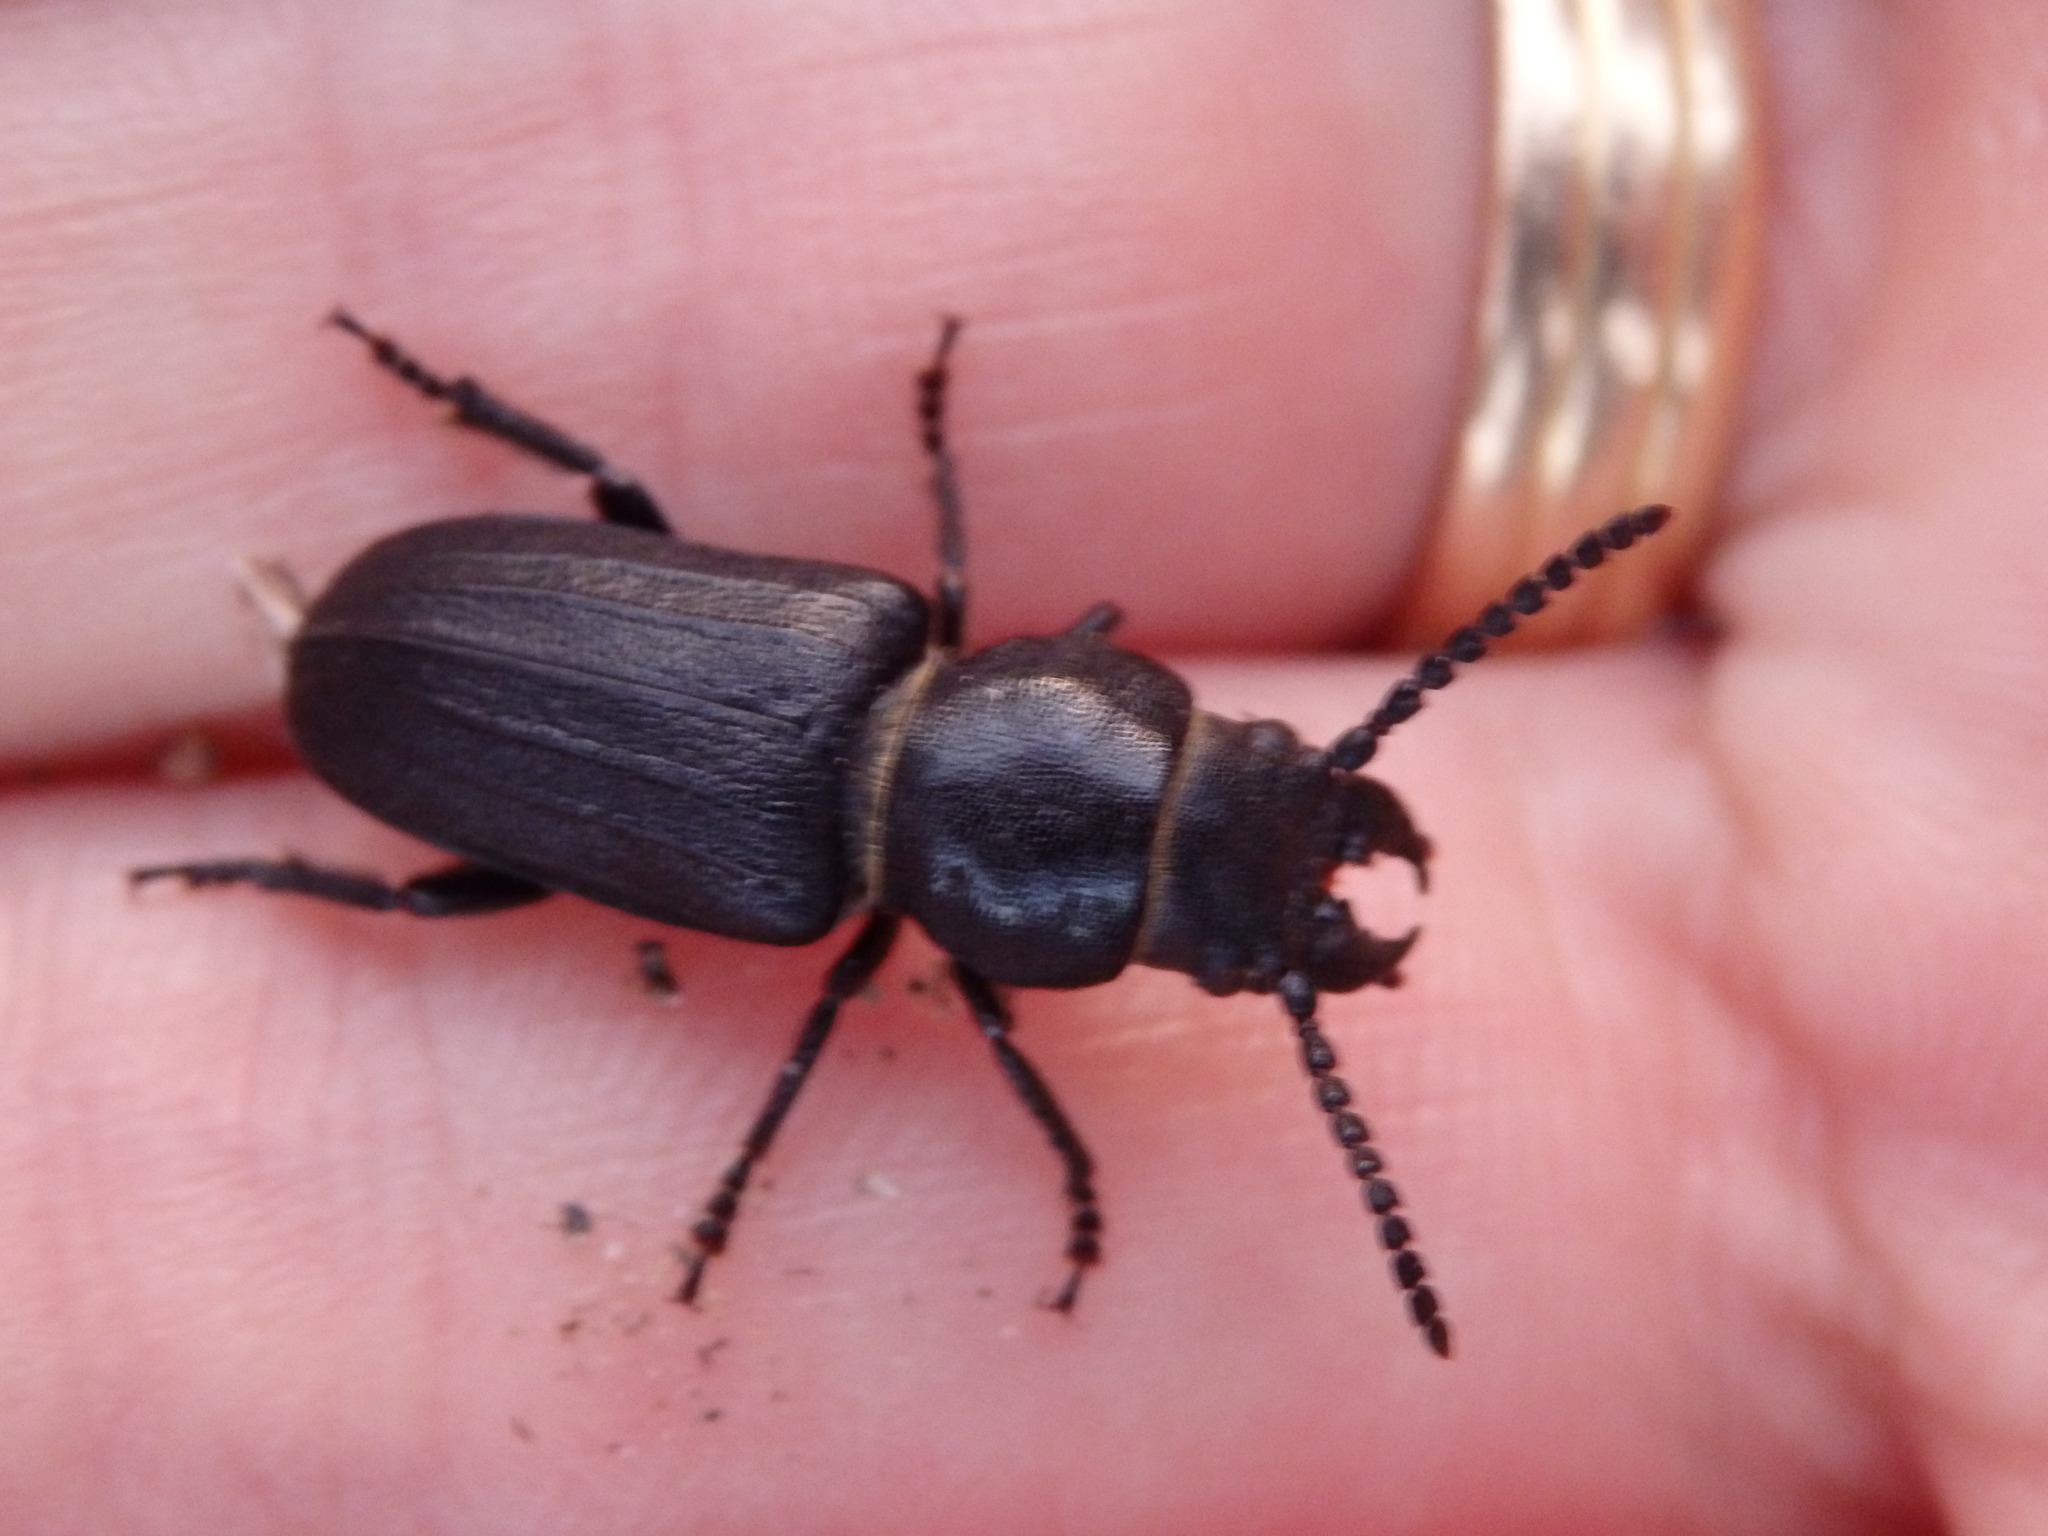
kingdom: Animalia
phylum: Arthropoda
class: Insecta
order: Coleoptera
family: Cerambycidae
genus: Spondylis
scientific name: Spondylis buprestoides
